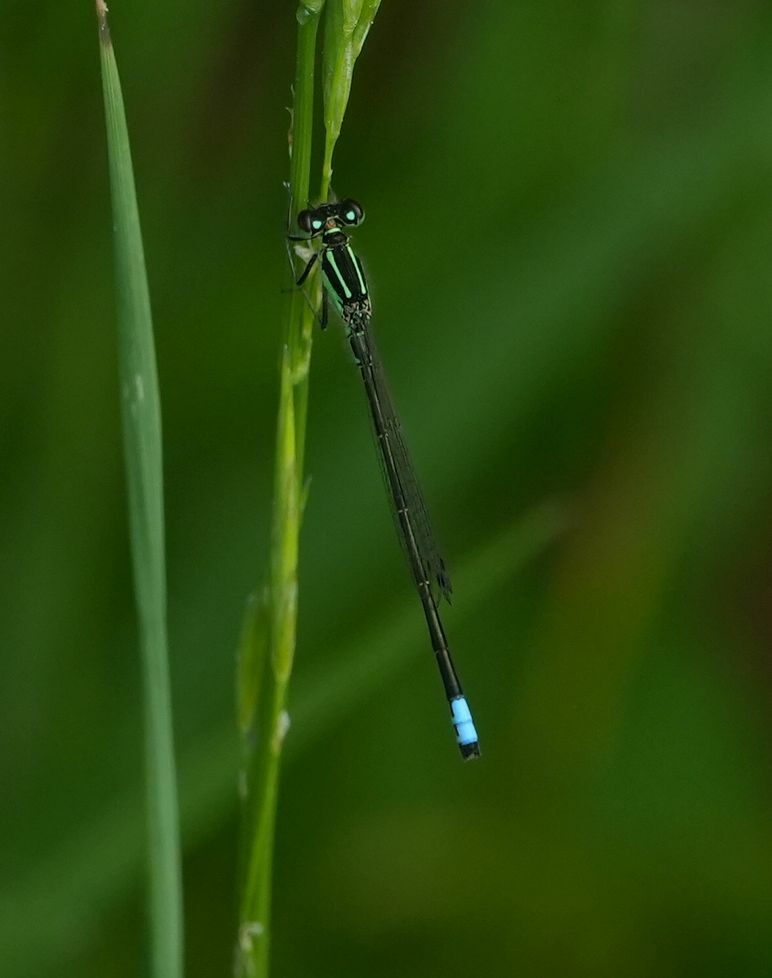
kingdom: Animalia
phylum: Arthropoda
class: Insecta
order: Odonata
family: Coenagrionidae
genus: Ischnura
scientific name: Ischnura verticalis
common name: Eastern forktail
